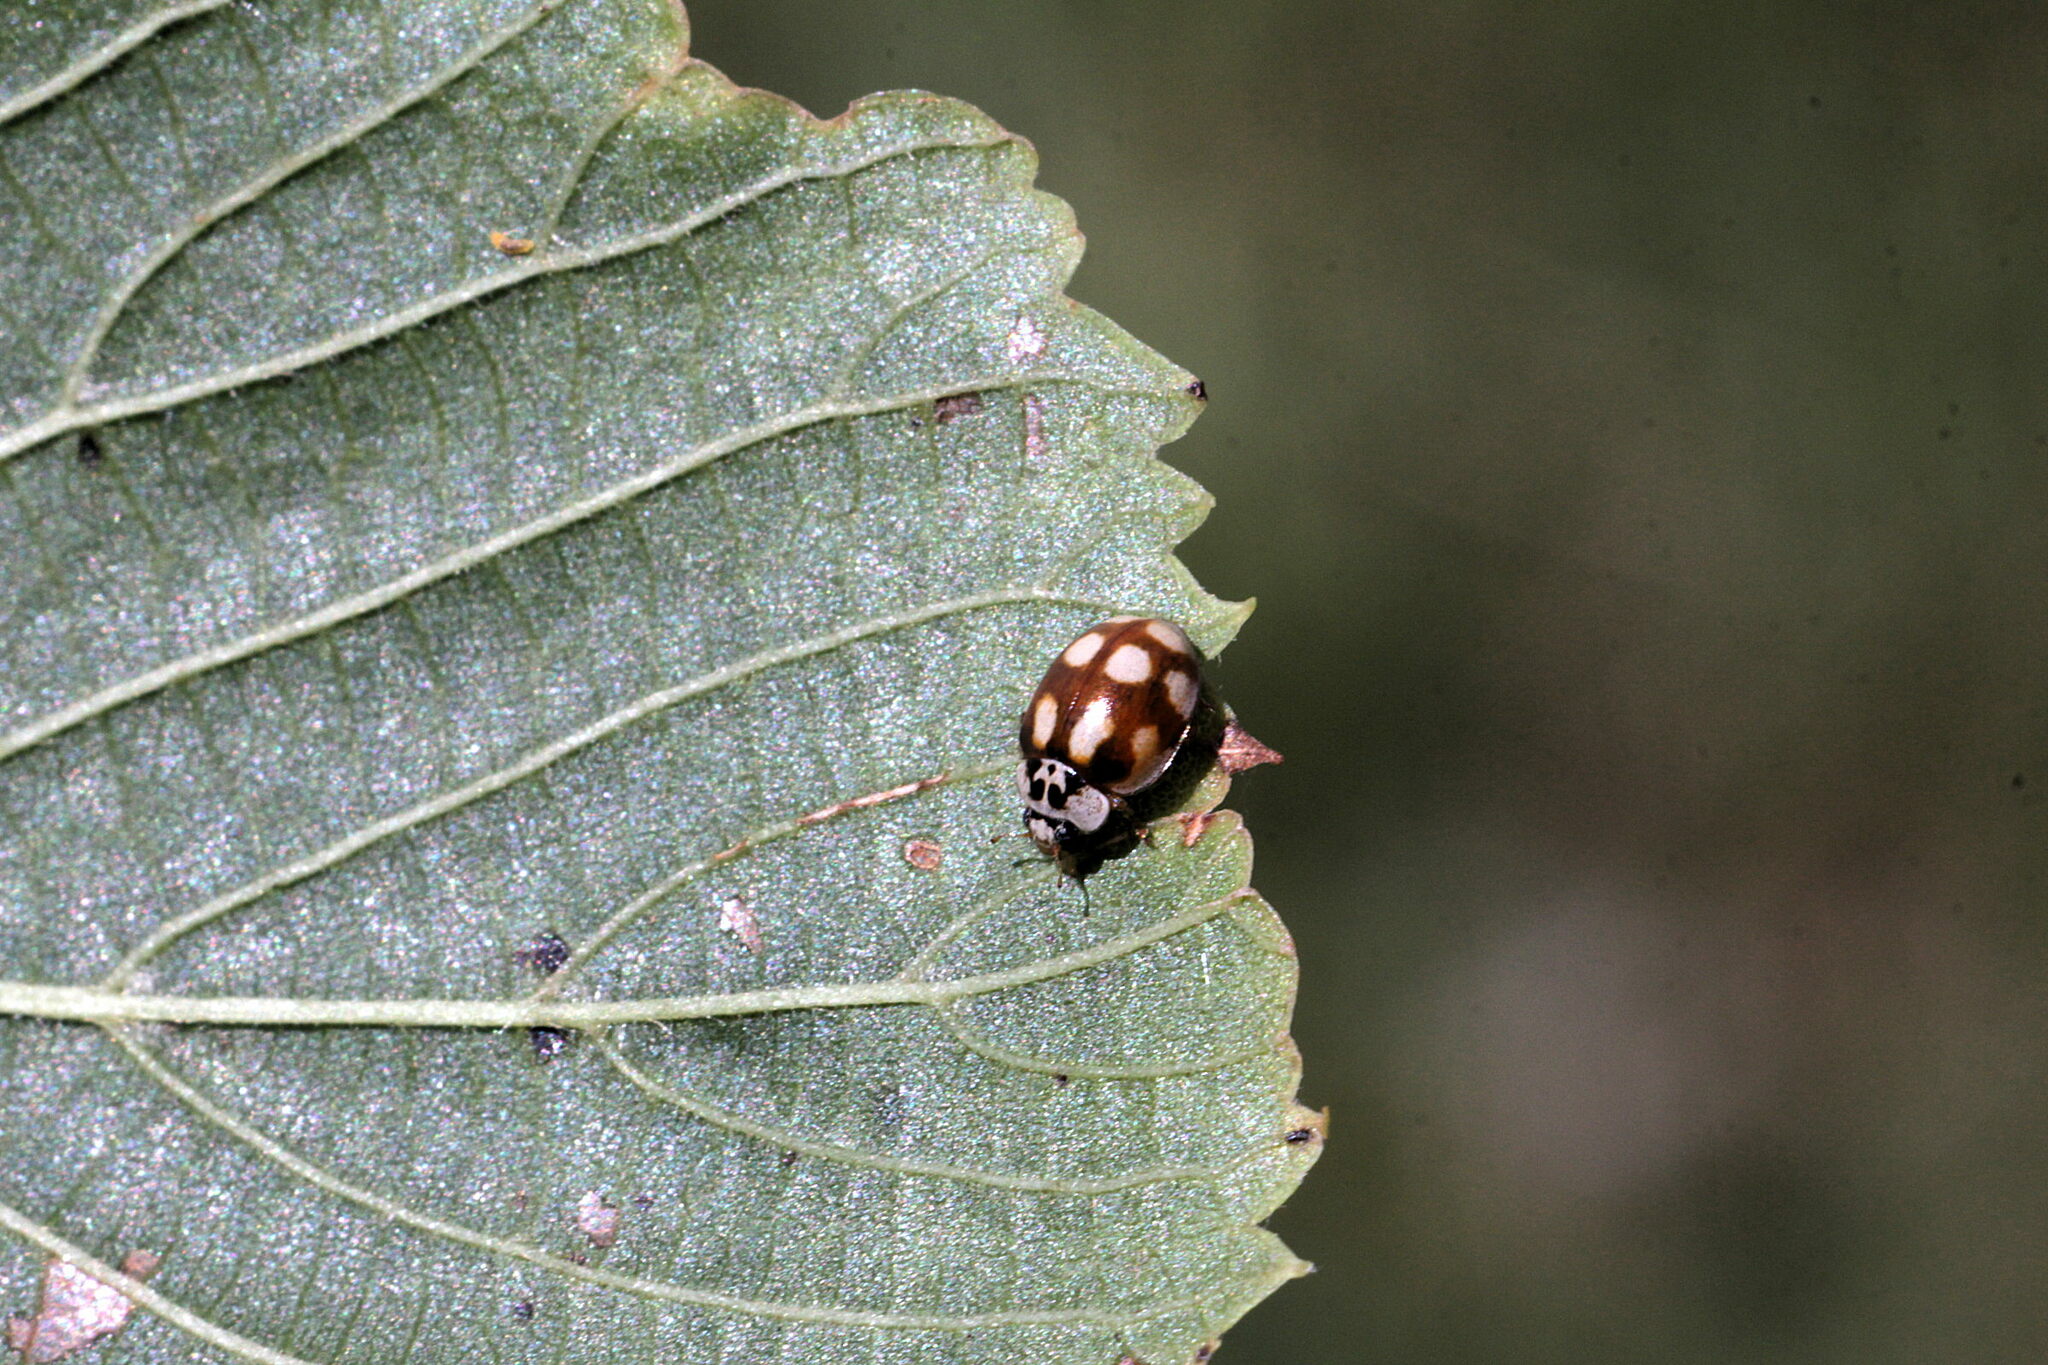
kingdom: Animalia
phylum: Arthropoda
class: Insecta
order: Coleoptera
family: Coccinellidae
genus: Adalia
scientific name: Adalia decempunctata
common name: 10-spot ladybird
